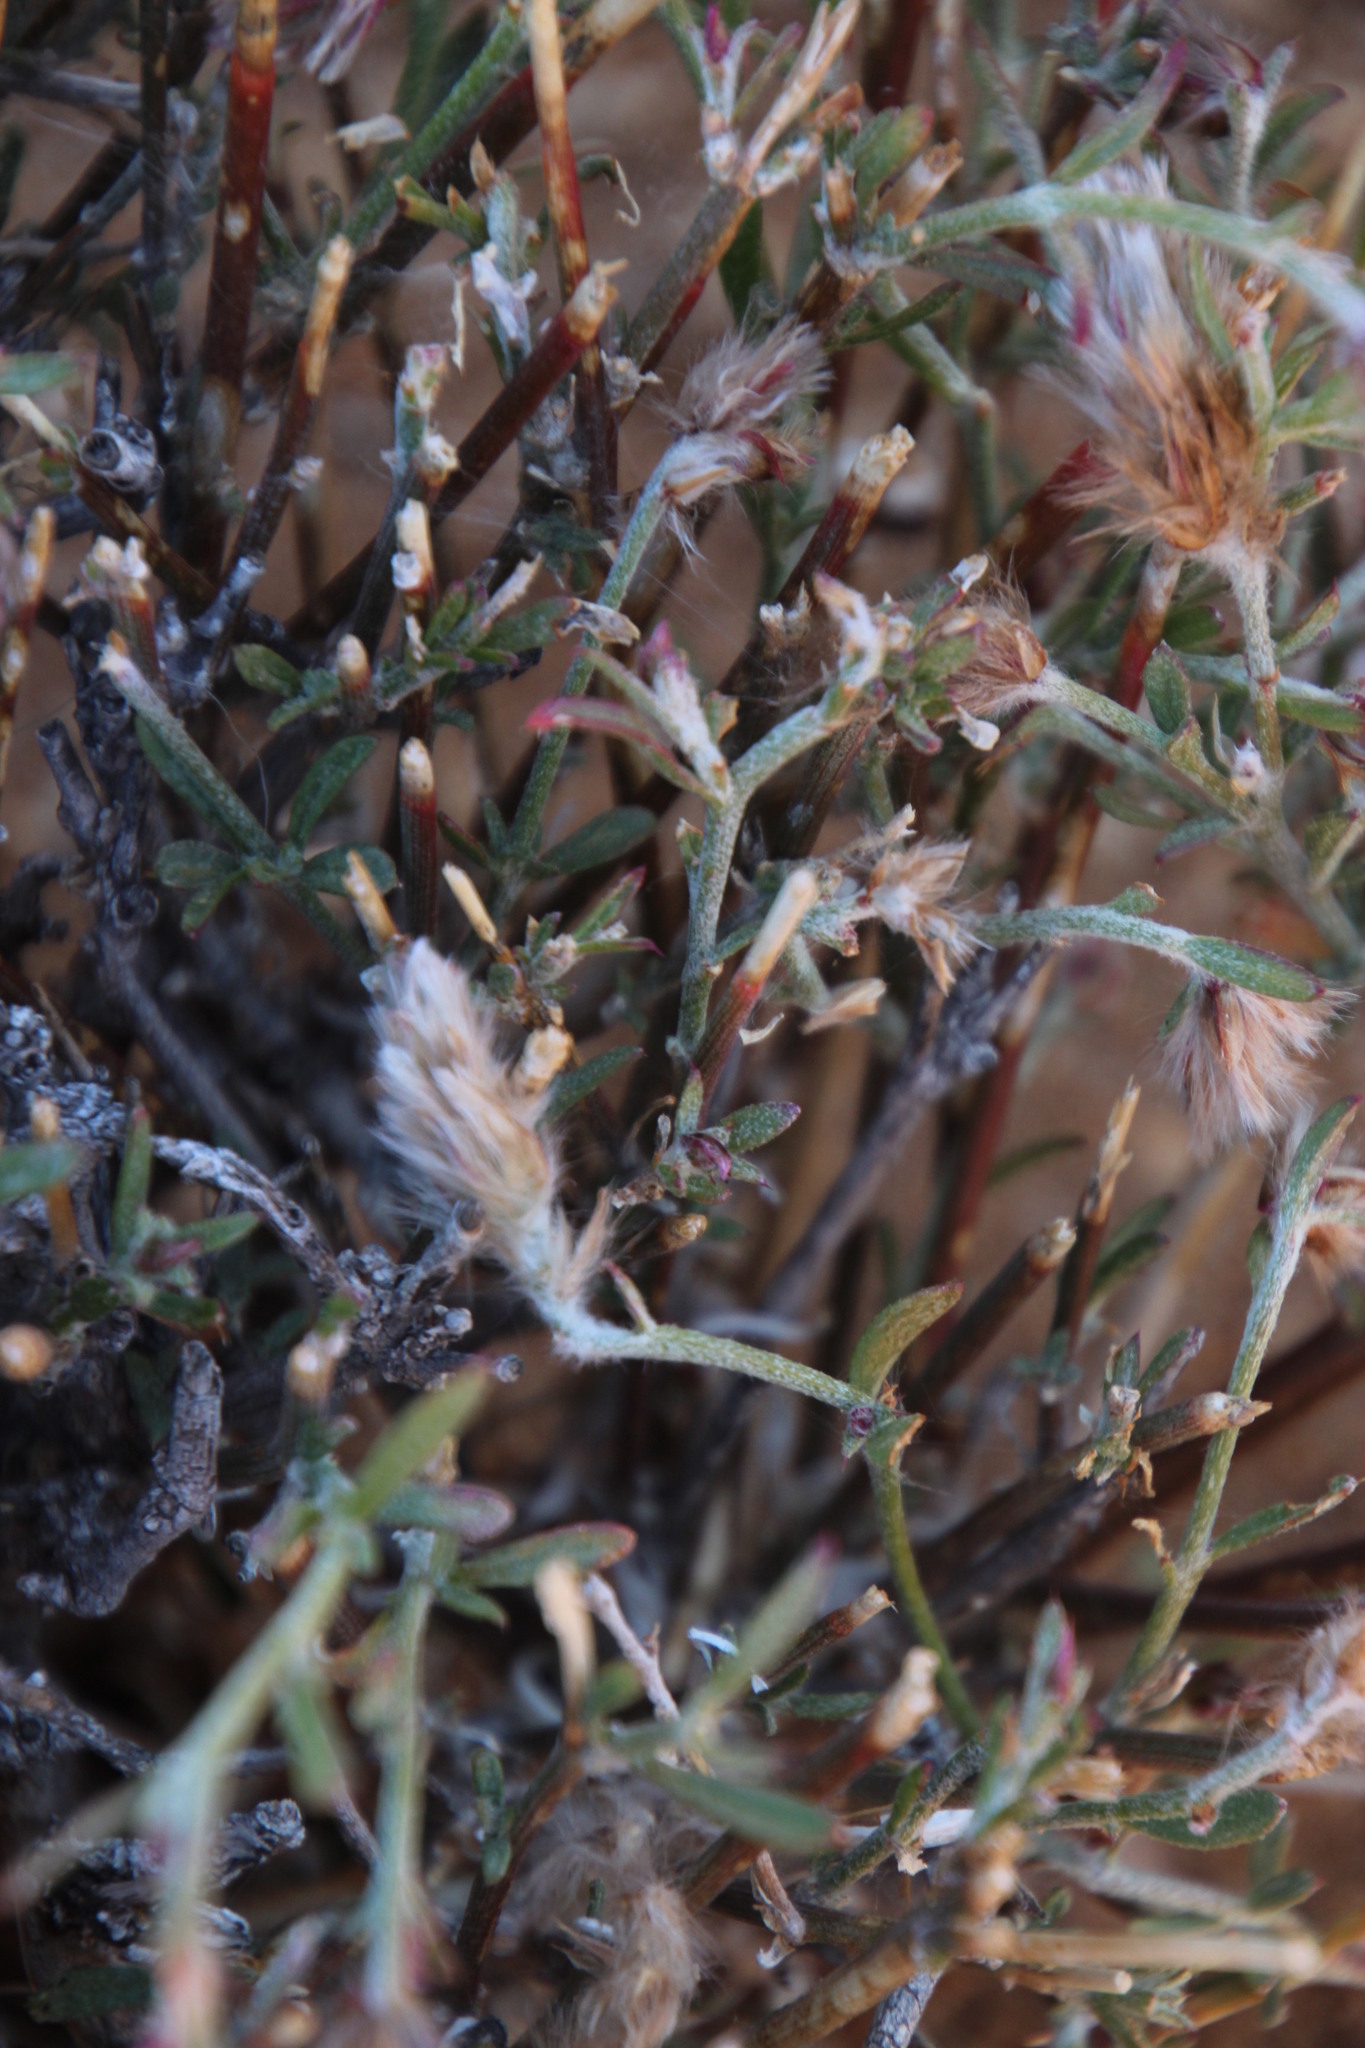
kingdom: Plantae
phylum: Tracheophyta
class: Magnoliopsida
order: Caryophyllales
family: Amaranthaceae
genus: Calicorema
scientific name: Calicorema capitata
